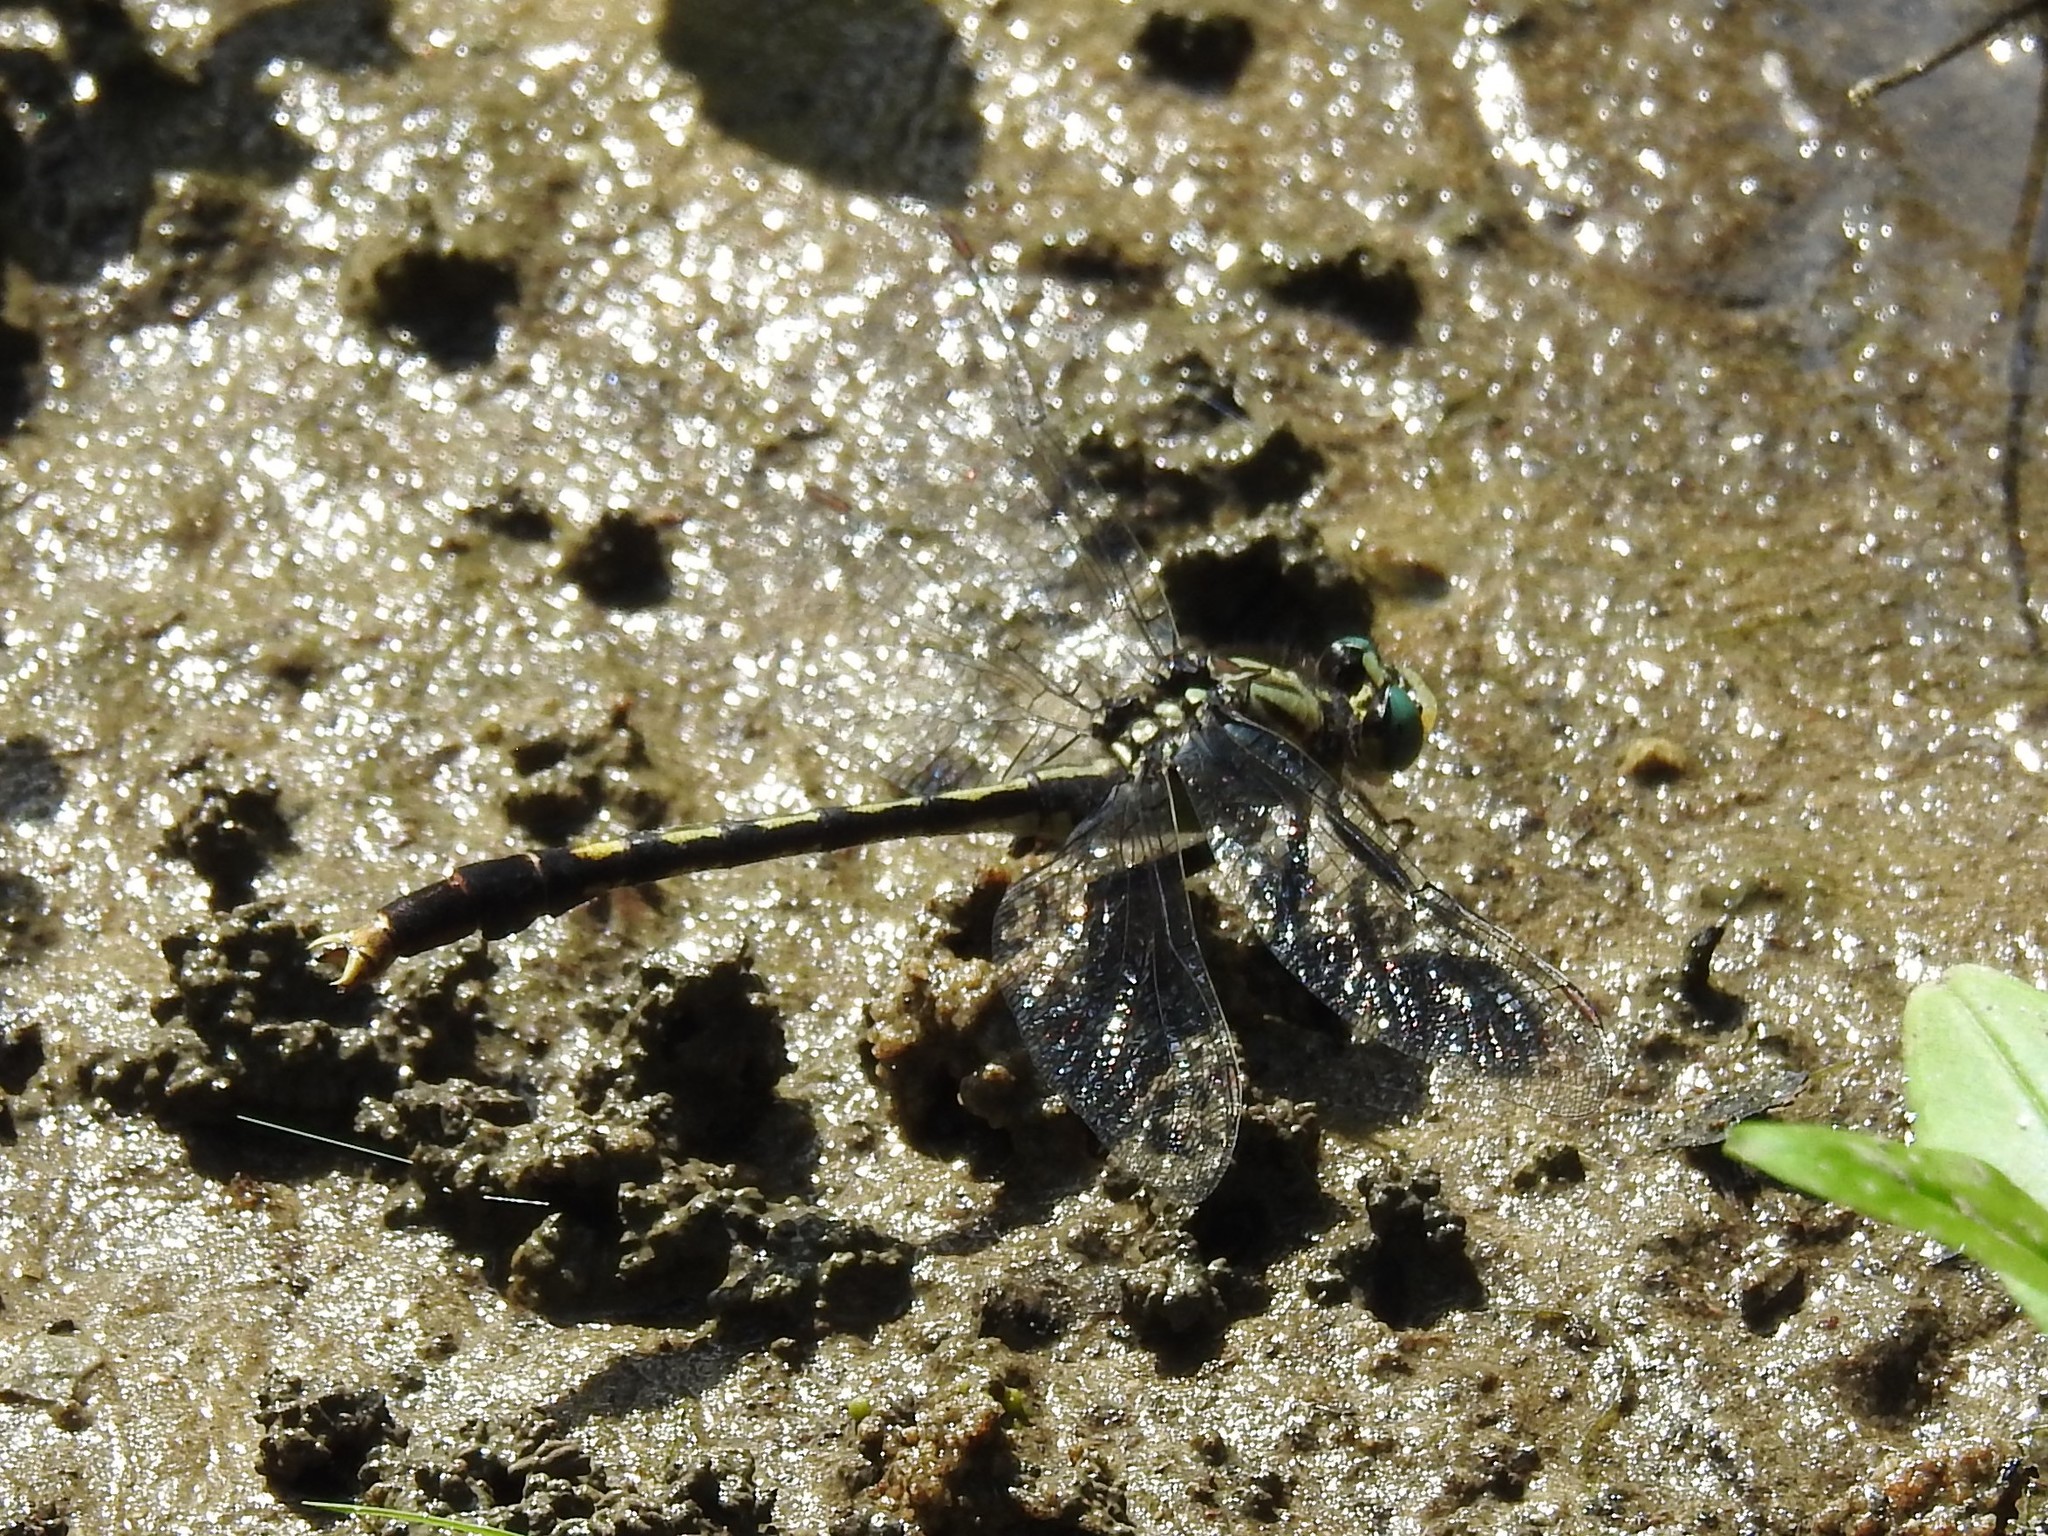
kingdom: Animalia
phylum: Arthropoda
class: Insecta
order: Odonata
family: Gomphidae
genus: Arigomphus
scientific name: Arigomphus villosipes
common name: Unicorn clubtail
